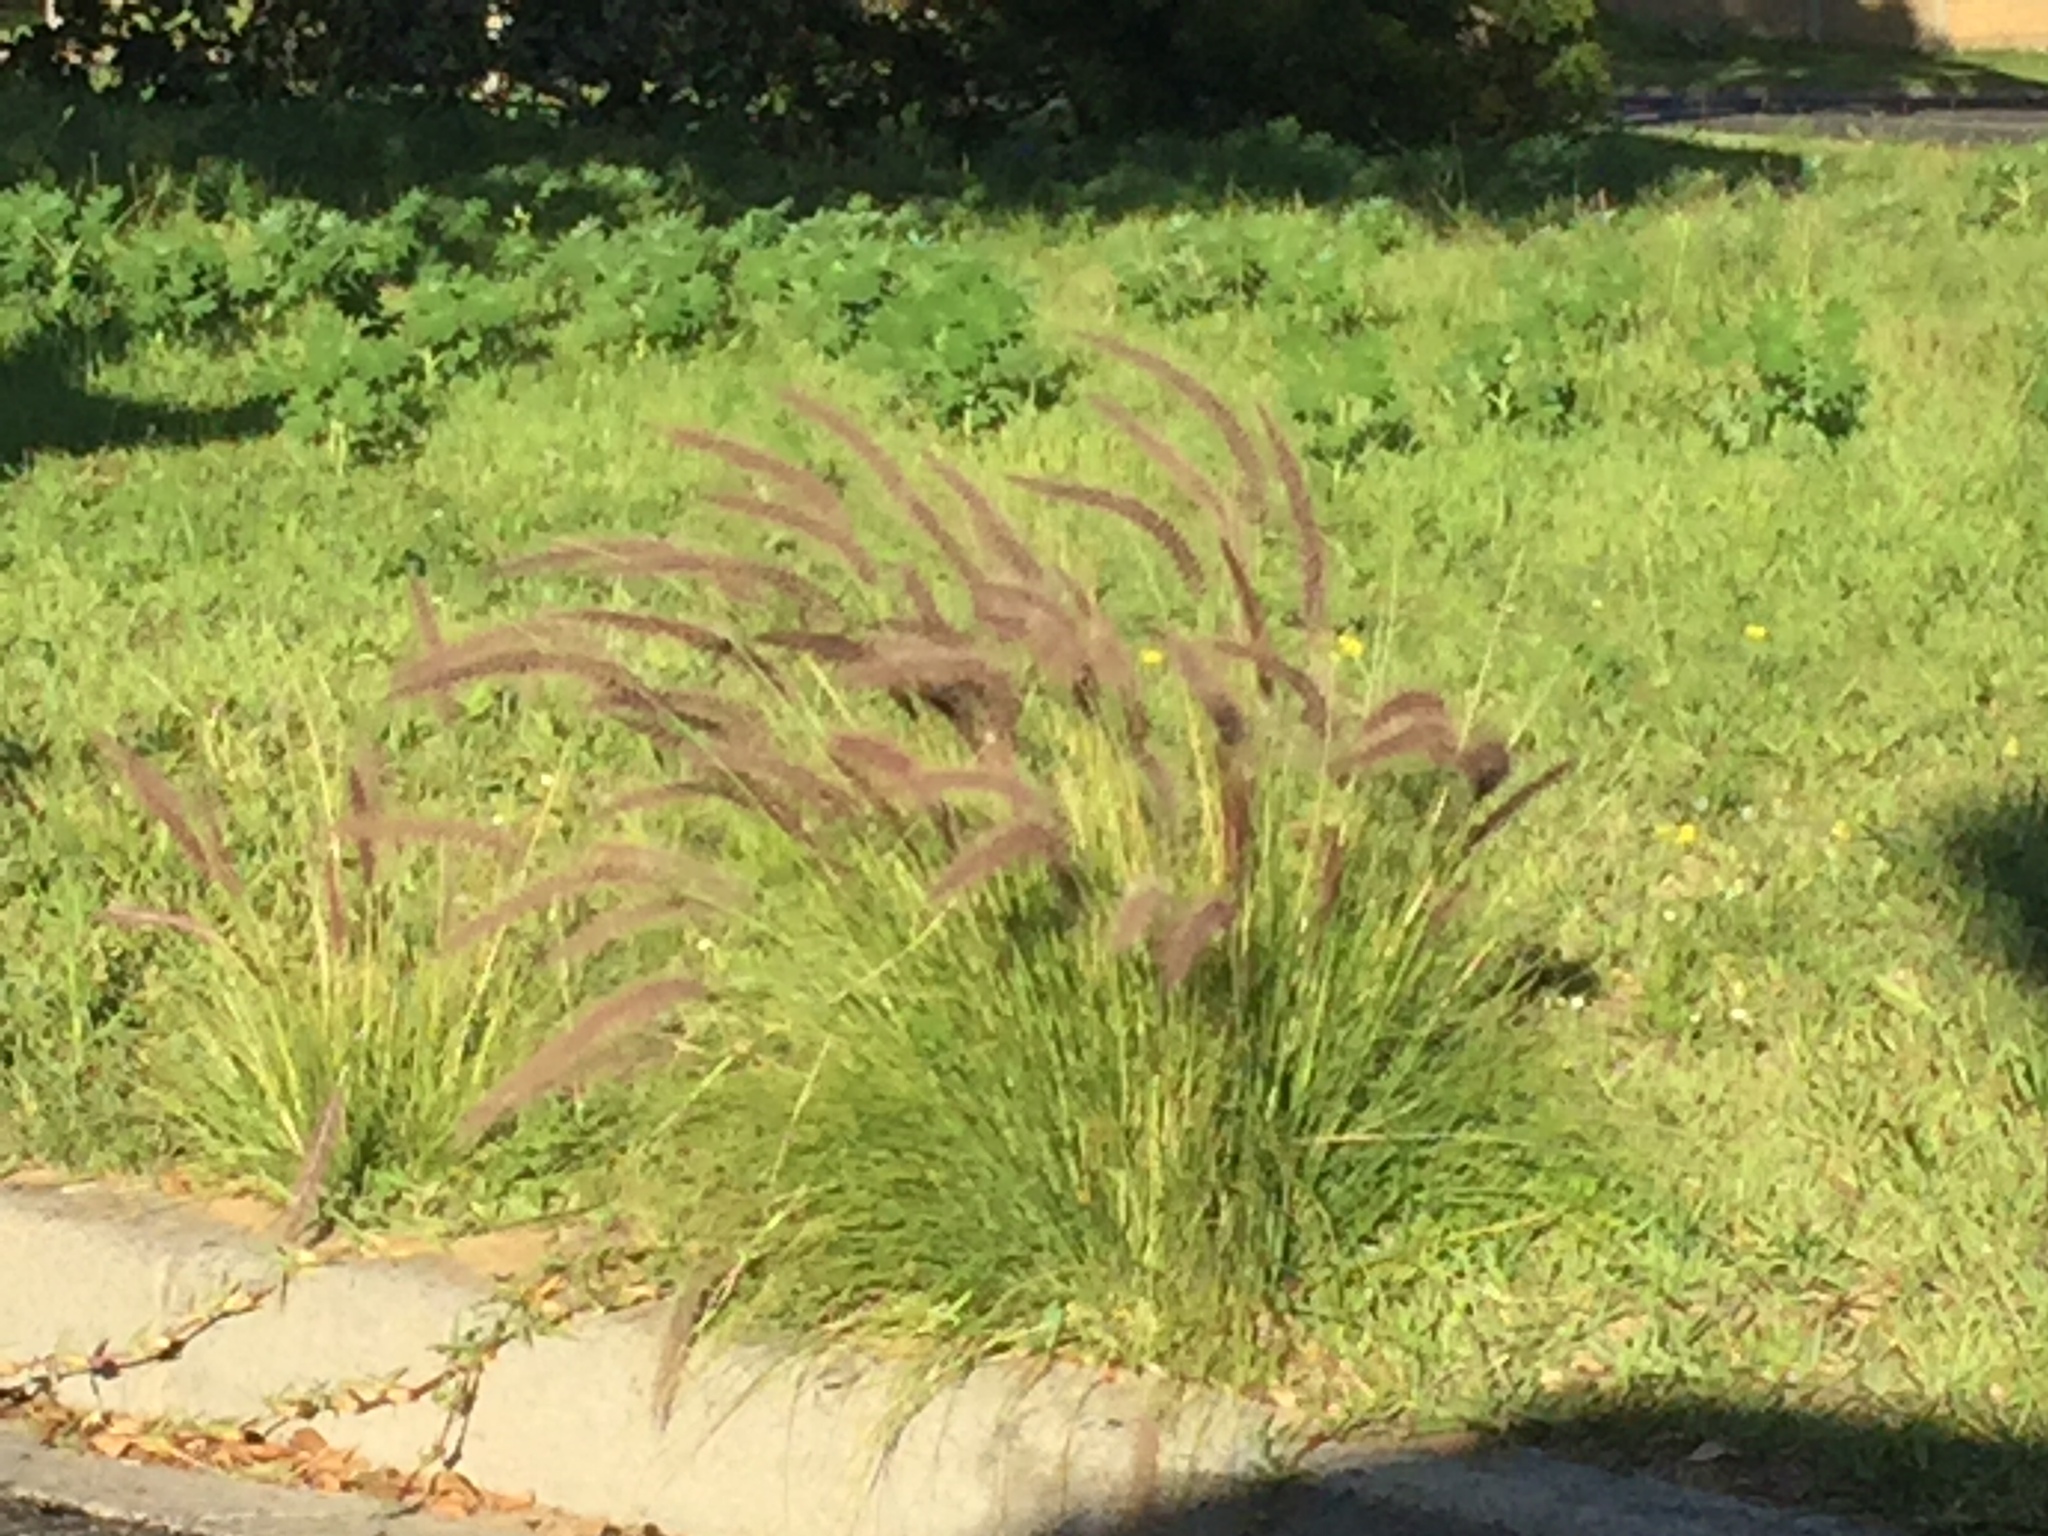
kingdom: Plantae
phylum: Tracheophyta
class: Liliopsida
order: Poales
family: Poaceae
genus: Cenchrus
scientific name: Cenchrus setaceus
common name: Crimson fountaingrass
